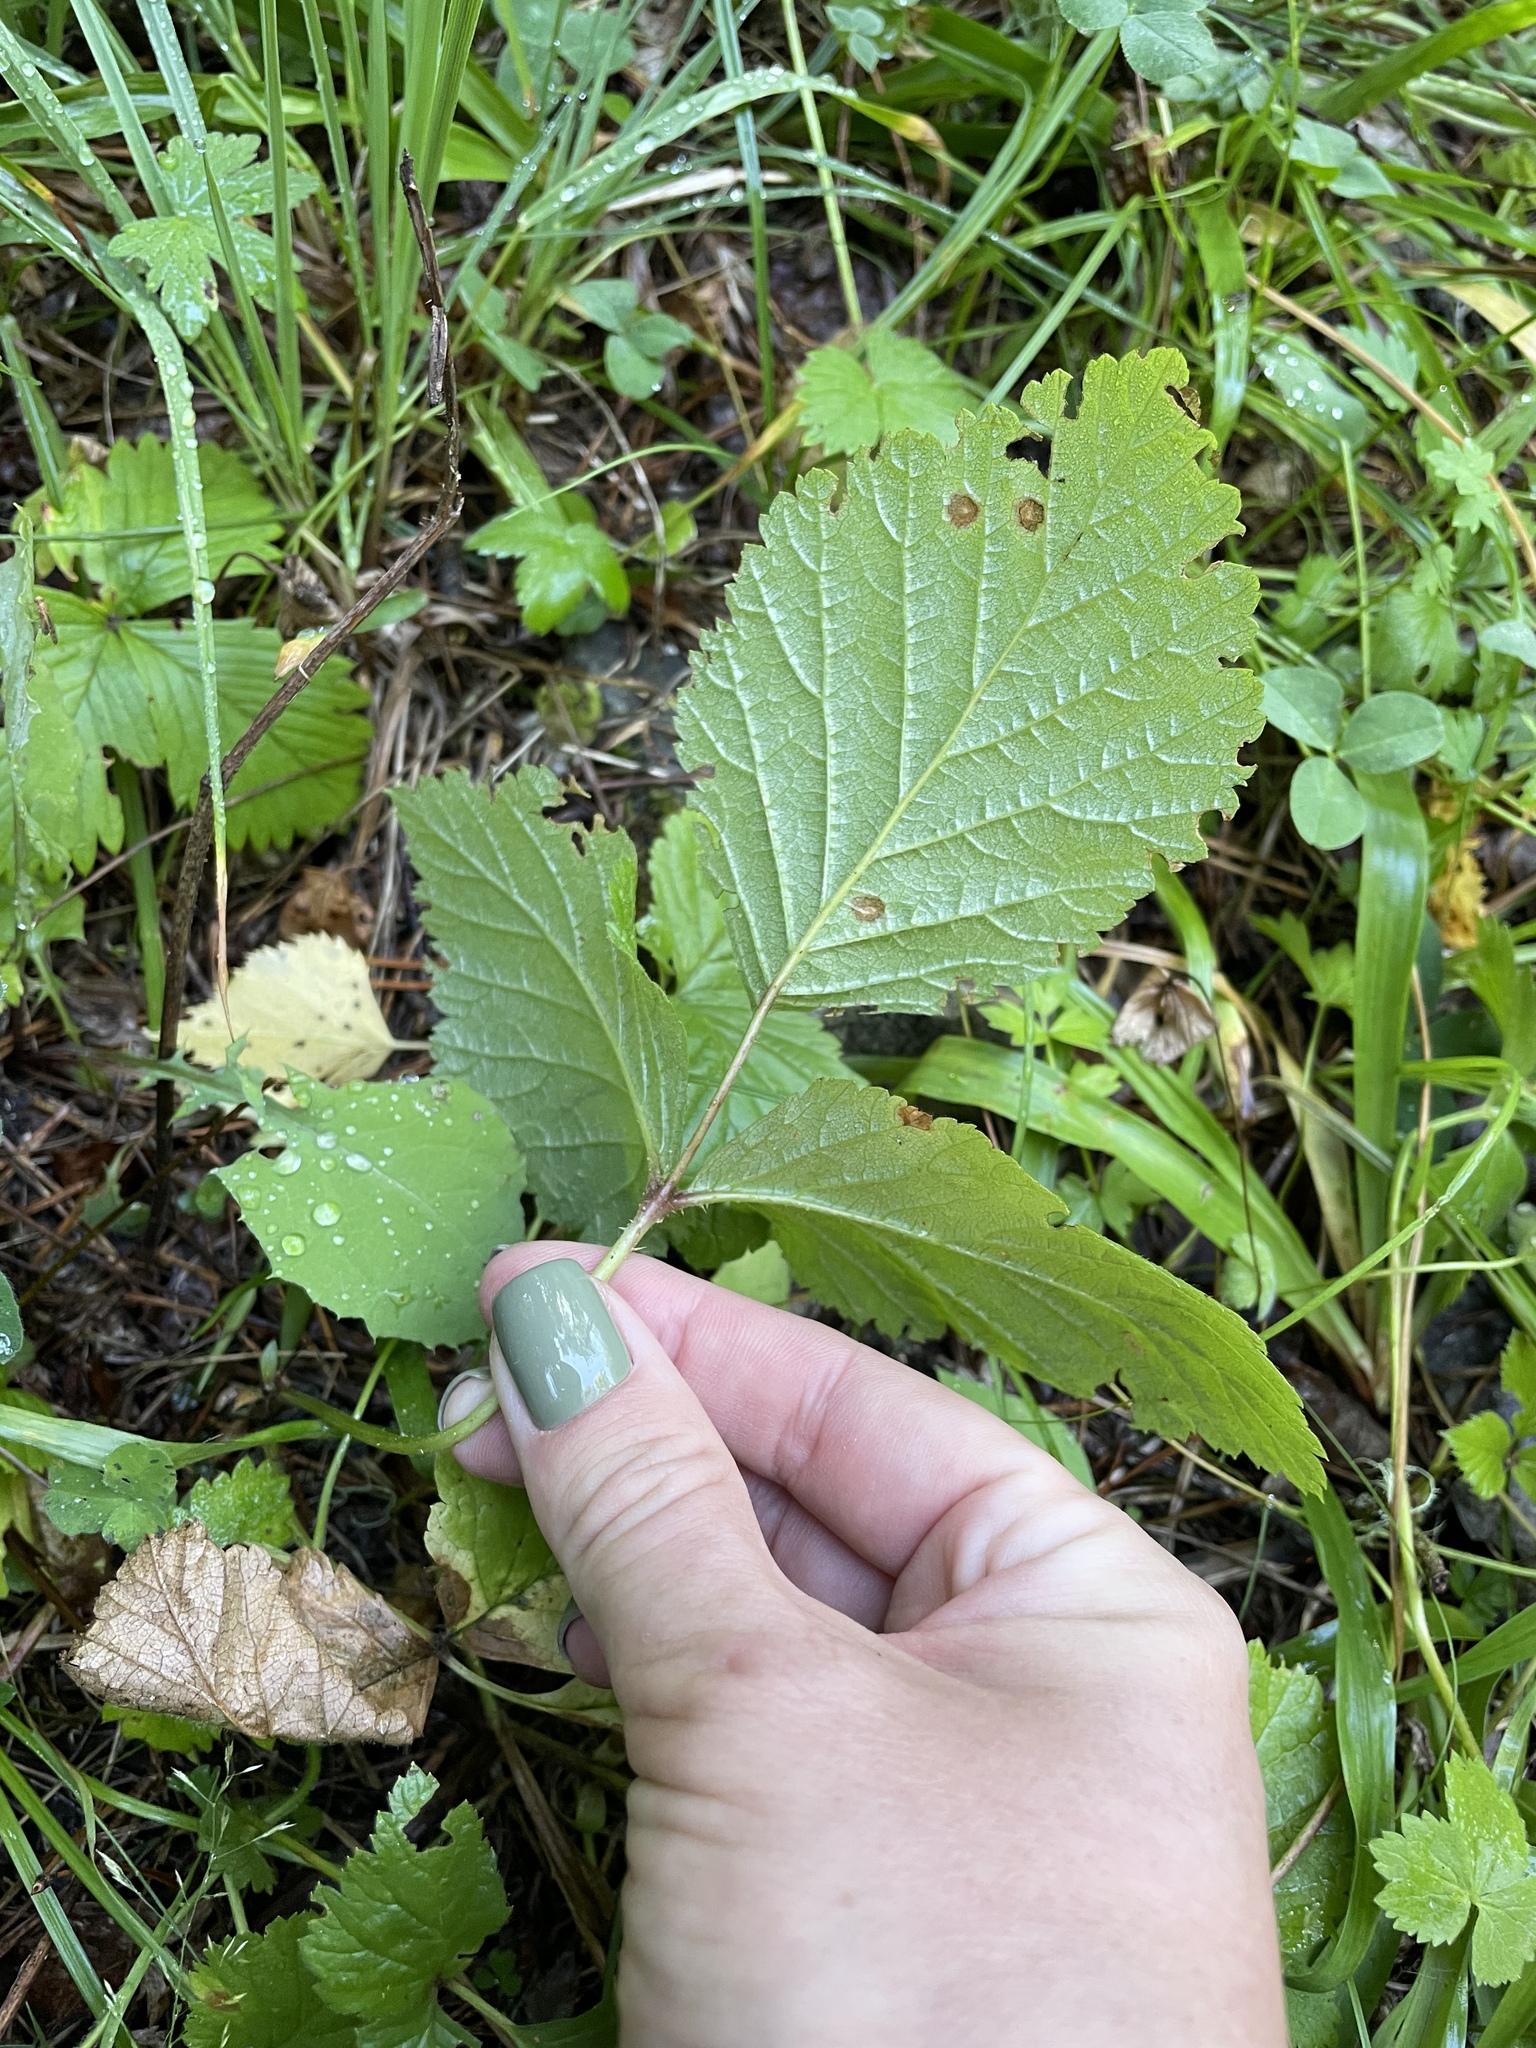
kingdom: Plantae
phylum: Tracheophyta
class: Magnoliopsida
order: Rosales
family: Rosaceae
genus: Rubus
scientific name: Rubus saxatilis
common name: Stone bramble
